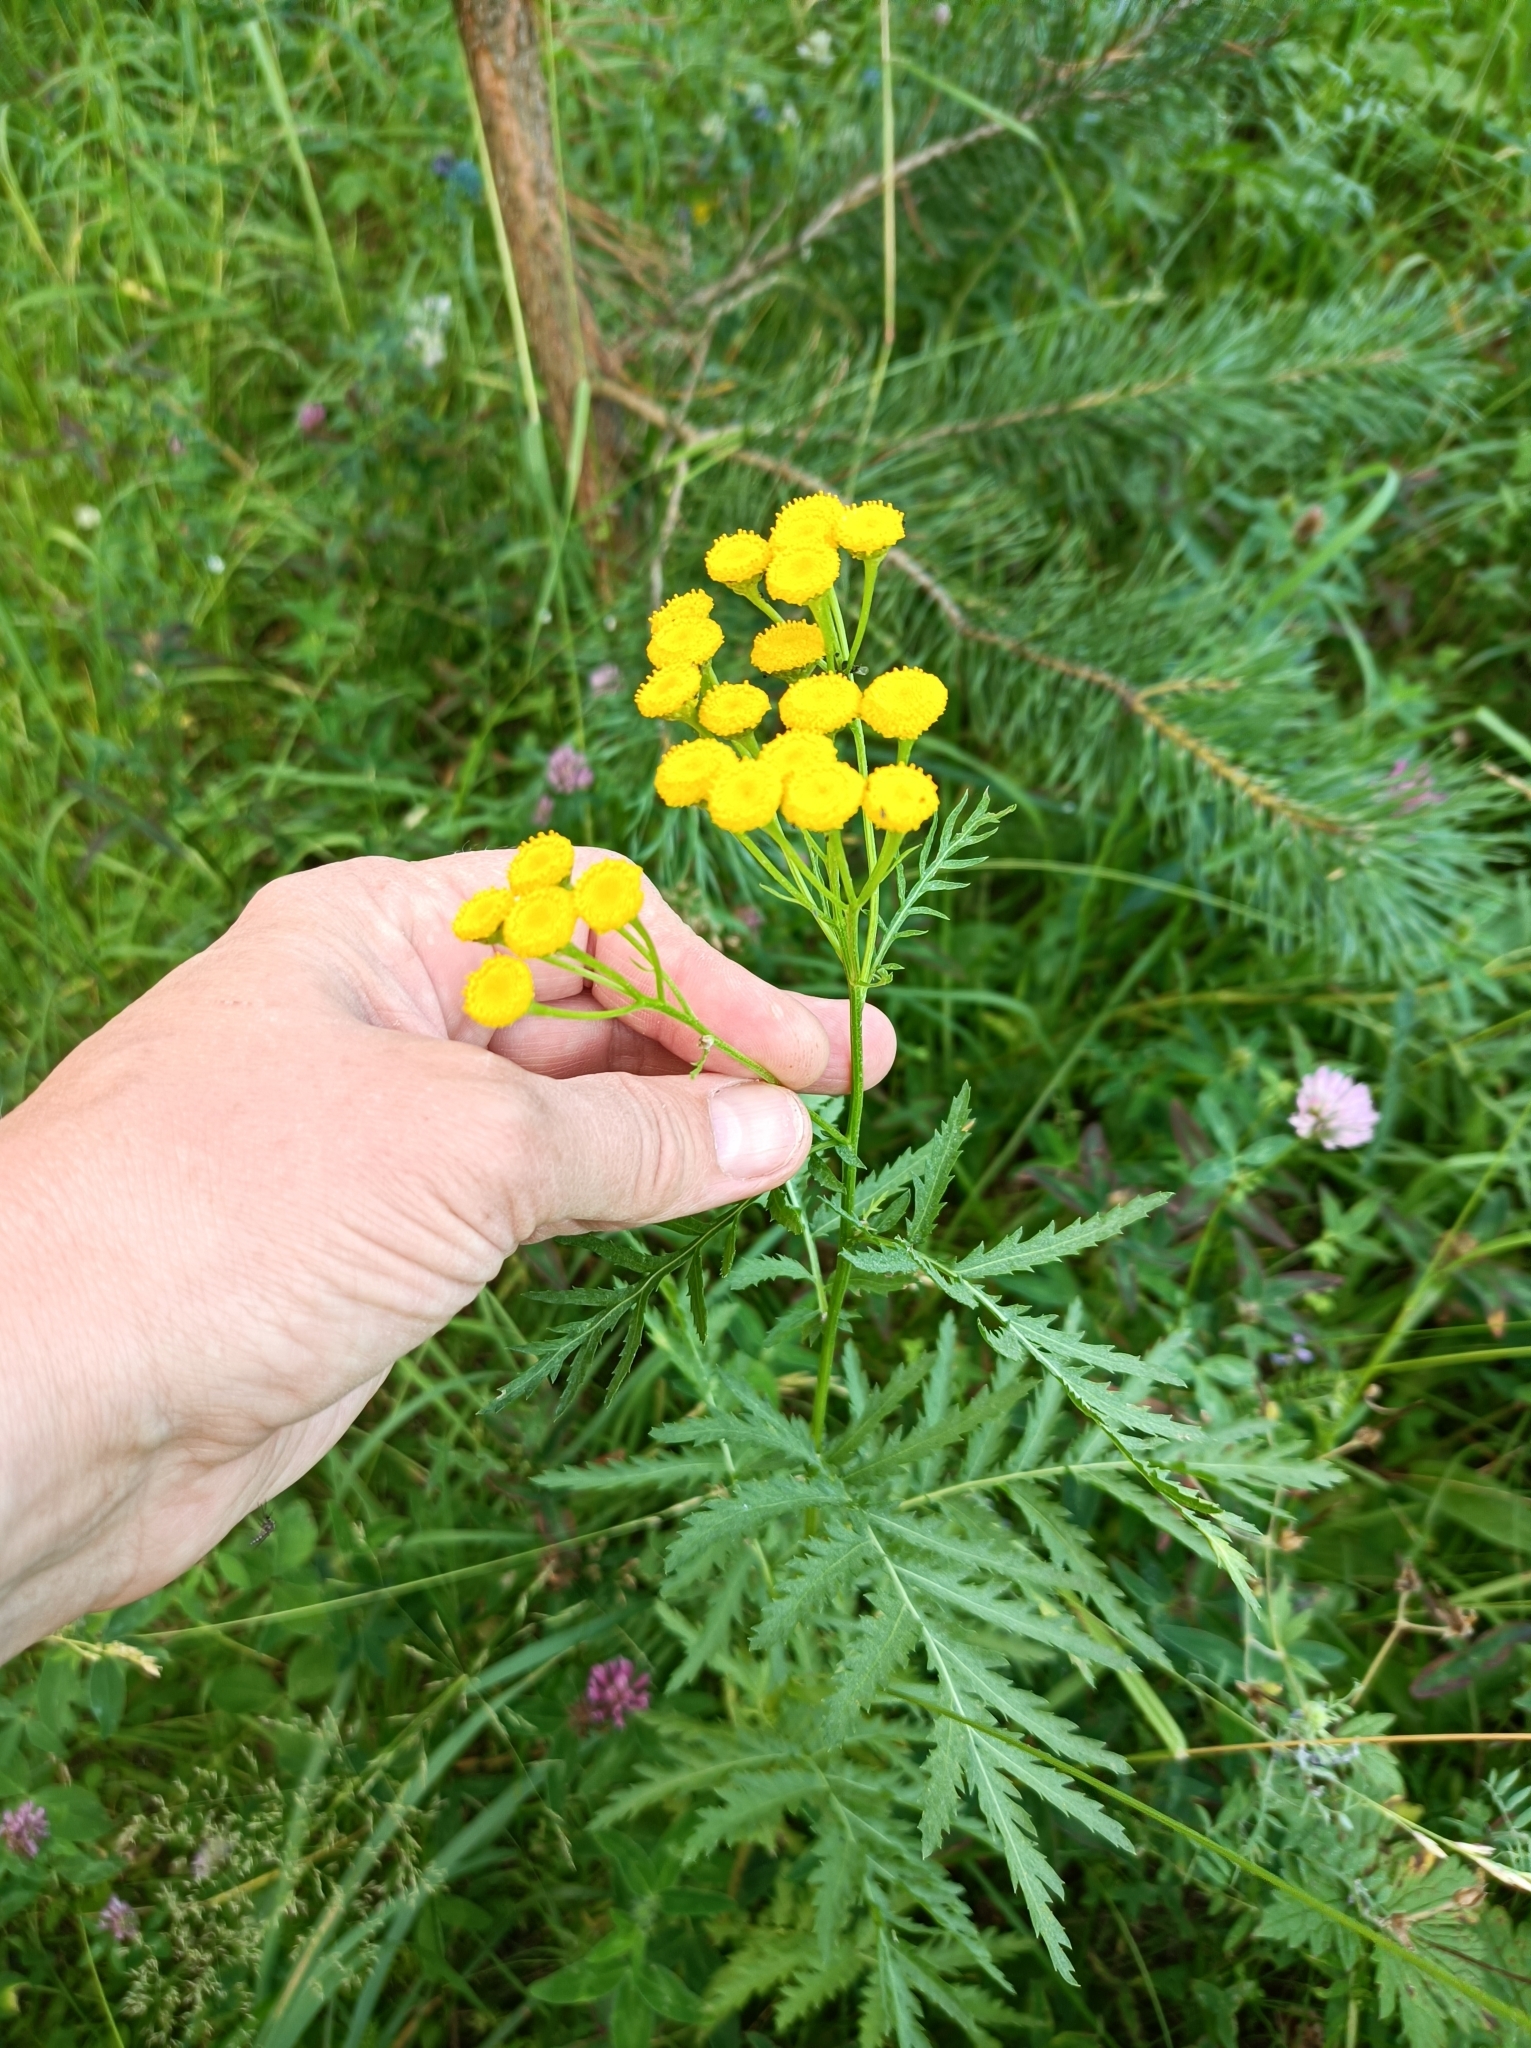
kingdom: Plantae
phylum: Tracheophyta
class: Magnoliopsida
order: Asterales
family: Asteraceae
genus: Tanacetum
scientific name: Tanacetum vulgare
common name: Common tansy
